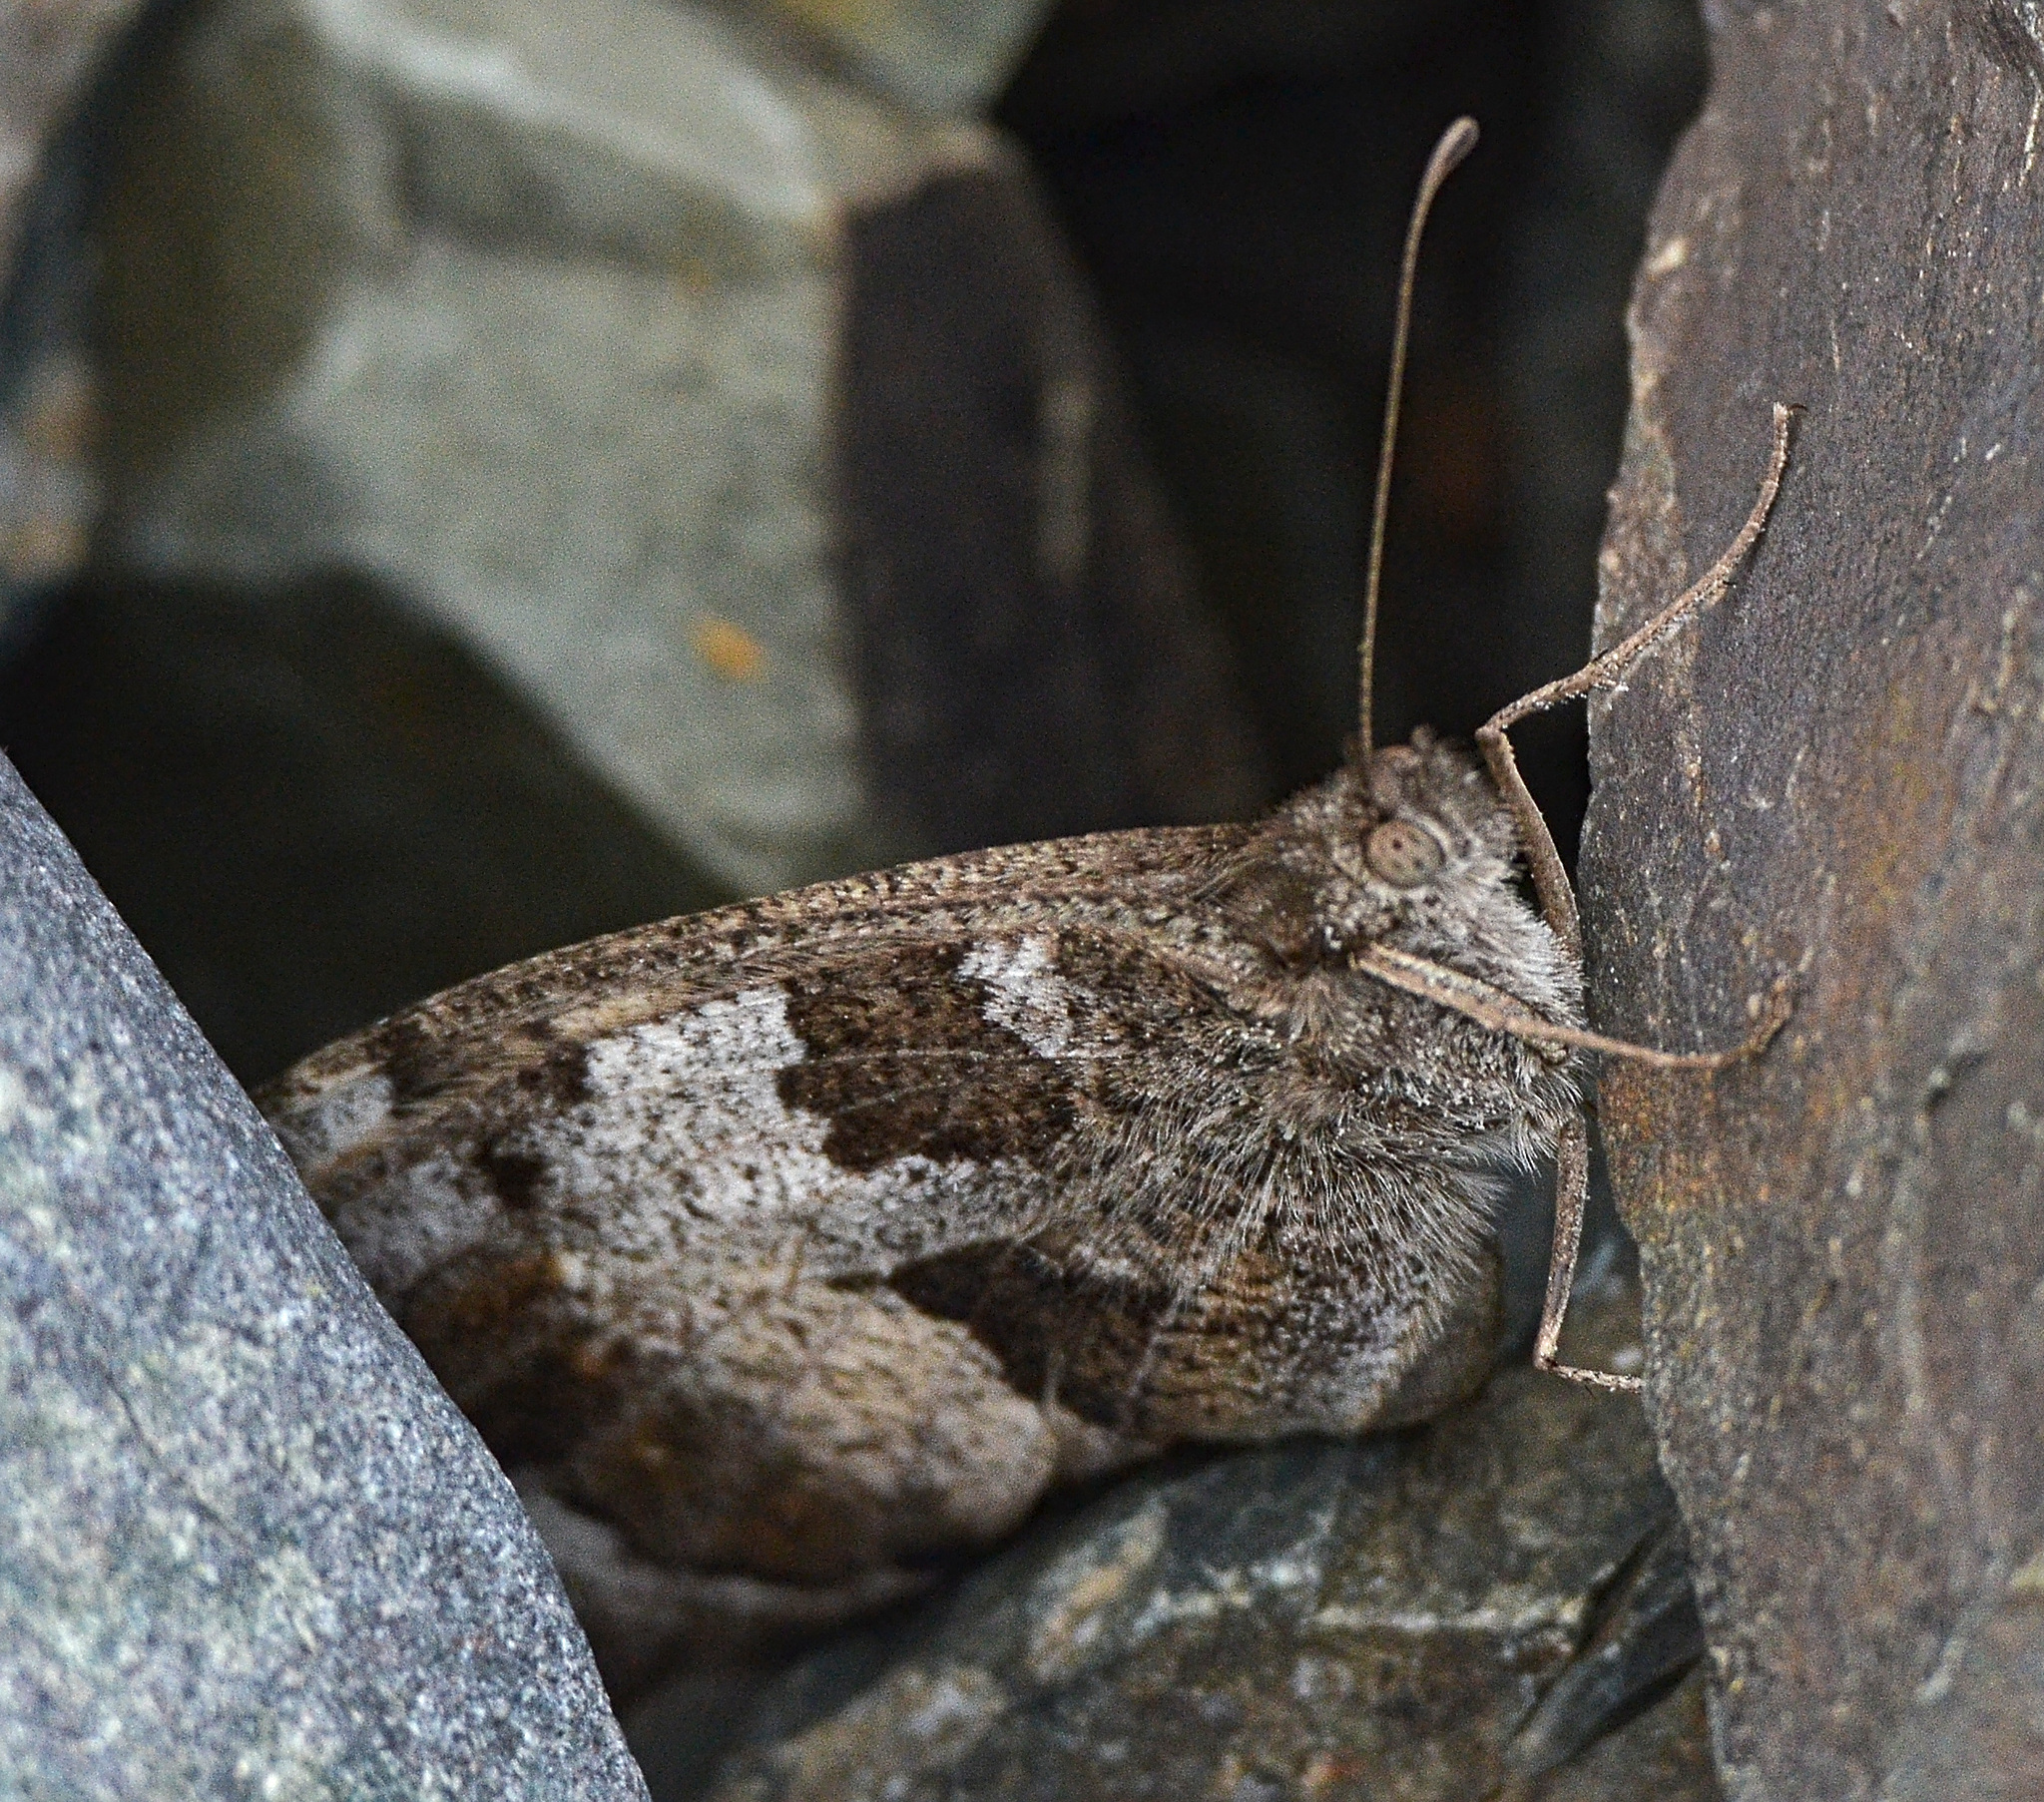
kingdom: Animalia
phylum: Arthropoda
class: Insecta
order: Lepidoptera
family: Nymphalidae
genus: Satyrus
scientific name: Satyrus briseis
